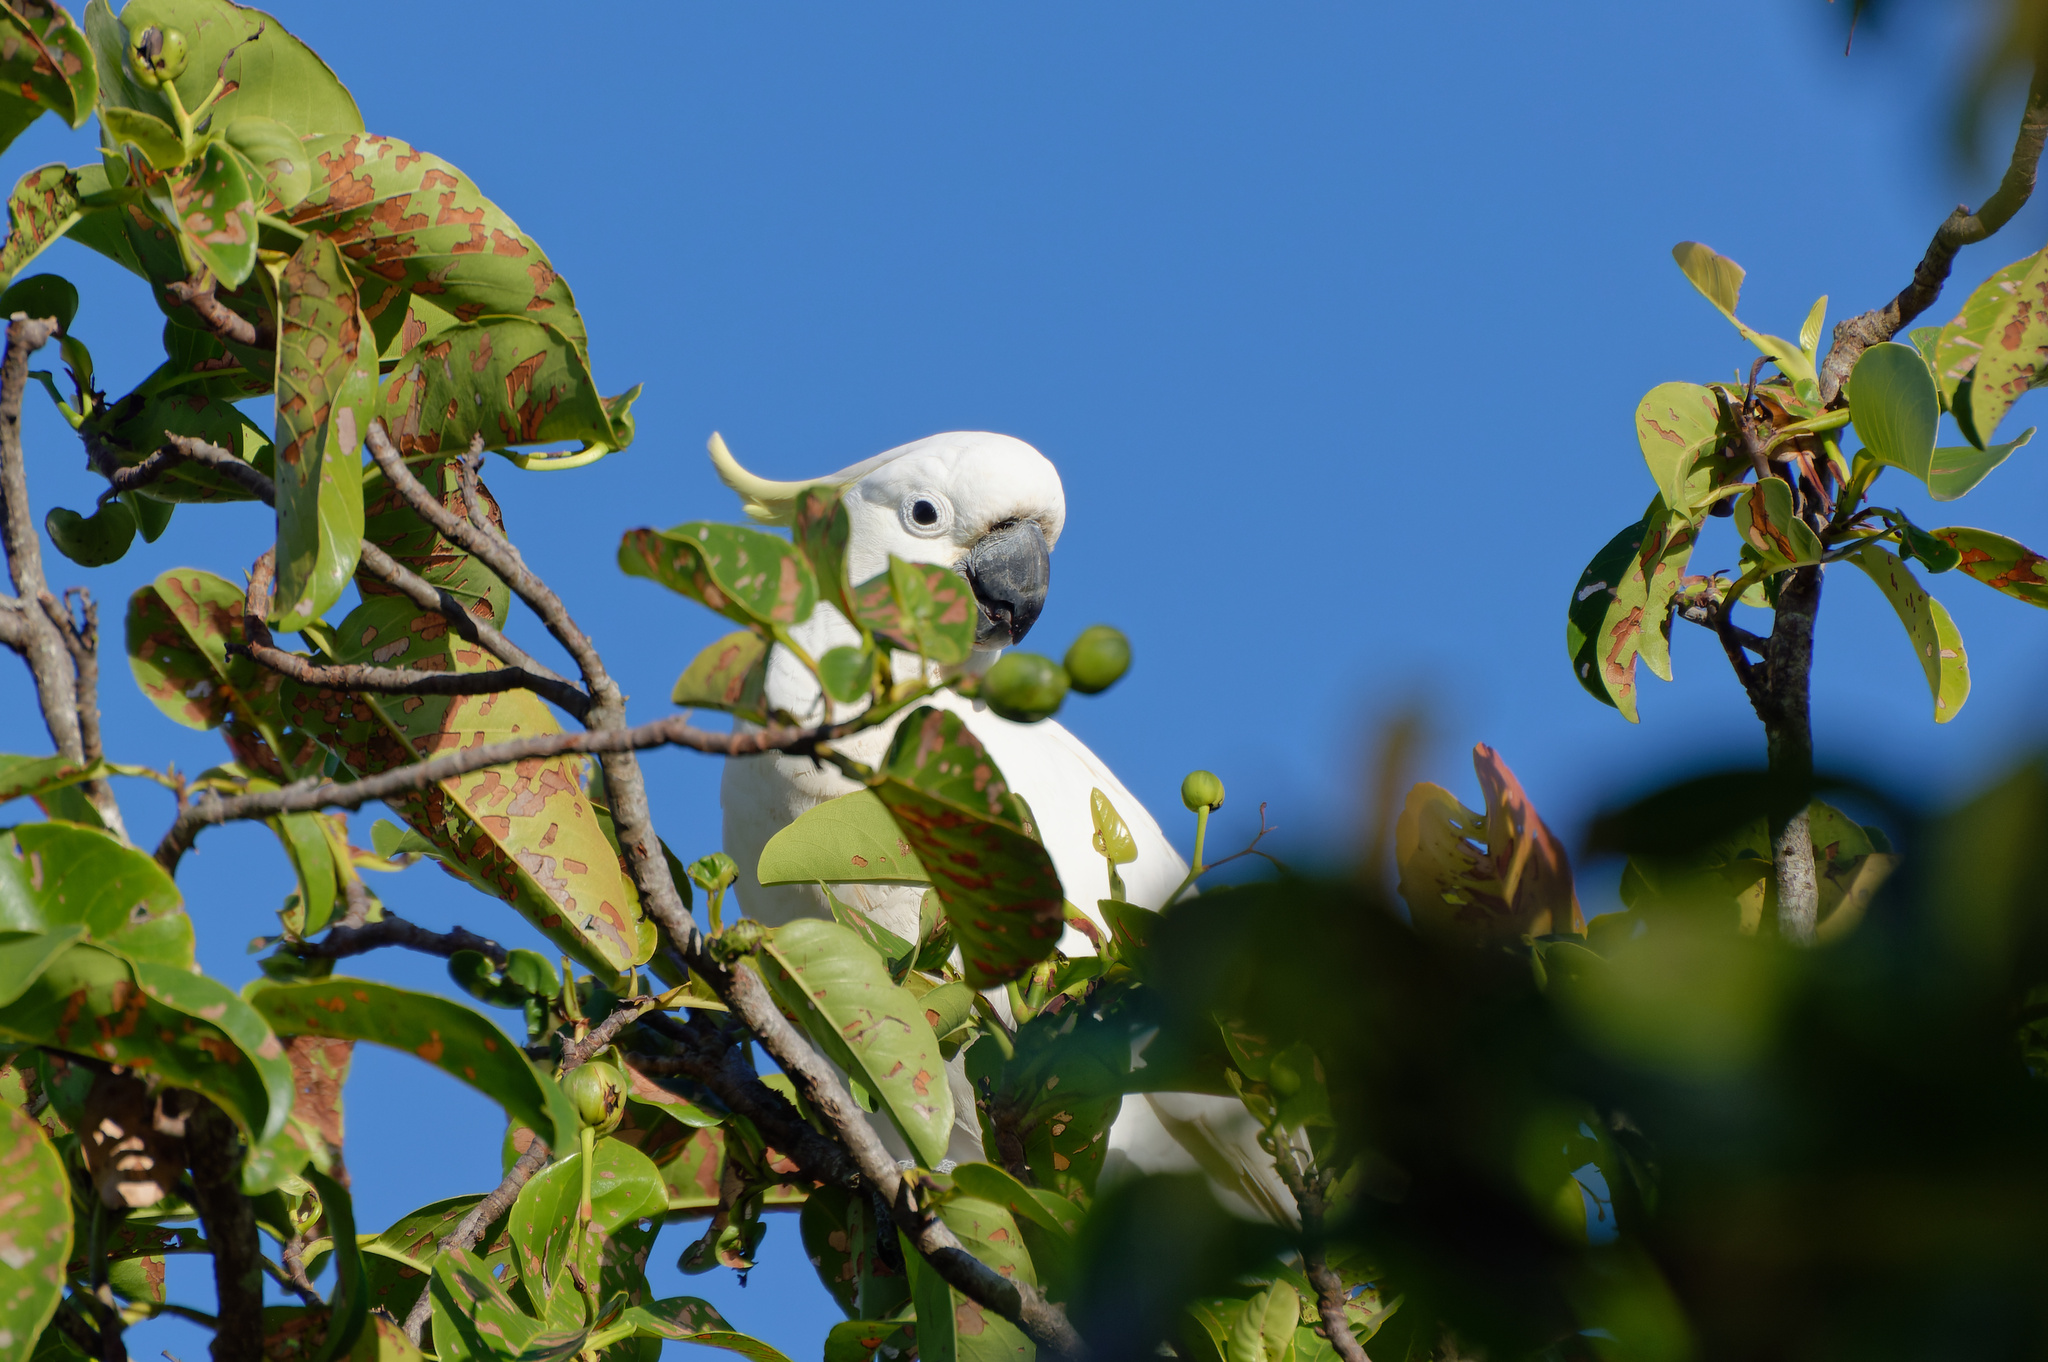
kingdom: Animalia
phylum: Chordata
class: Aves
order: Psittaciformes
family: Psittacidae
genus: Cacatua
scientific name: Cacatua galerita
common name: Sulphur-crested cockatoo
